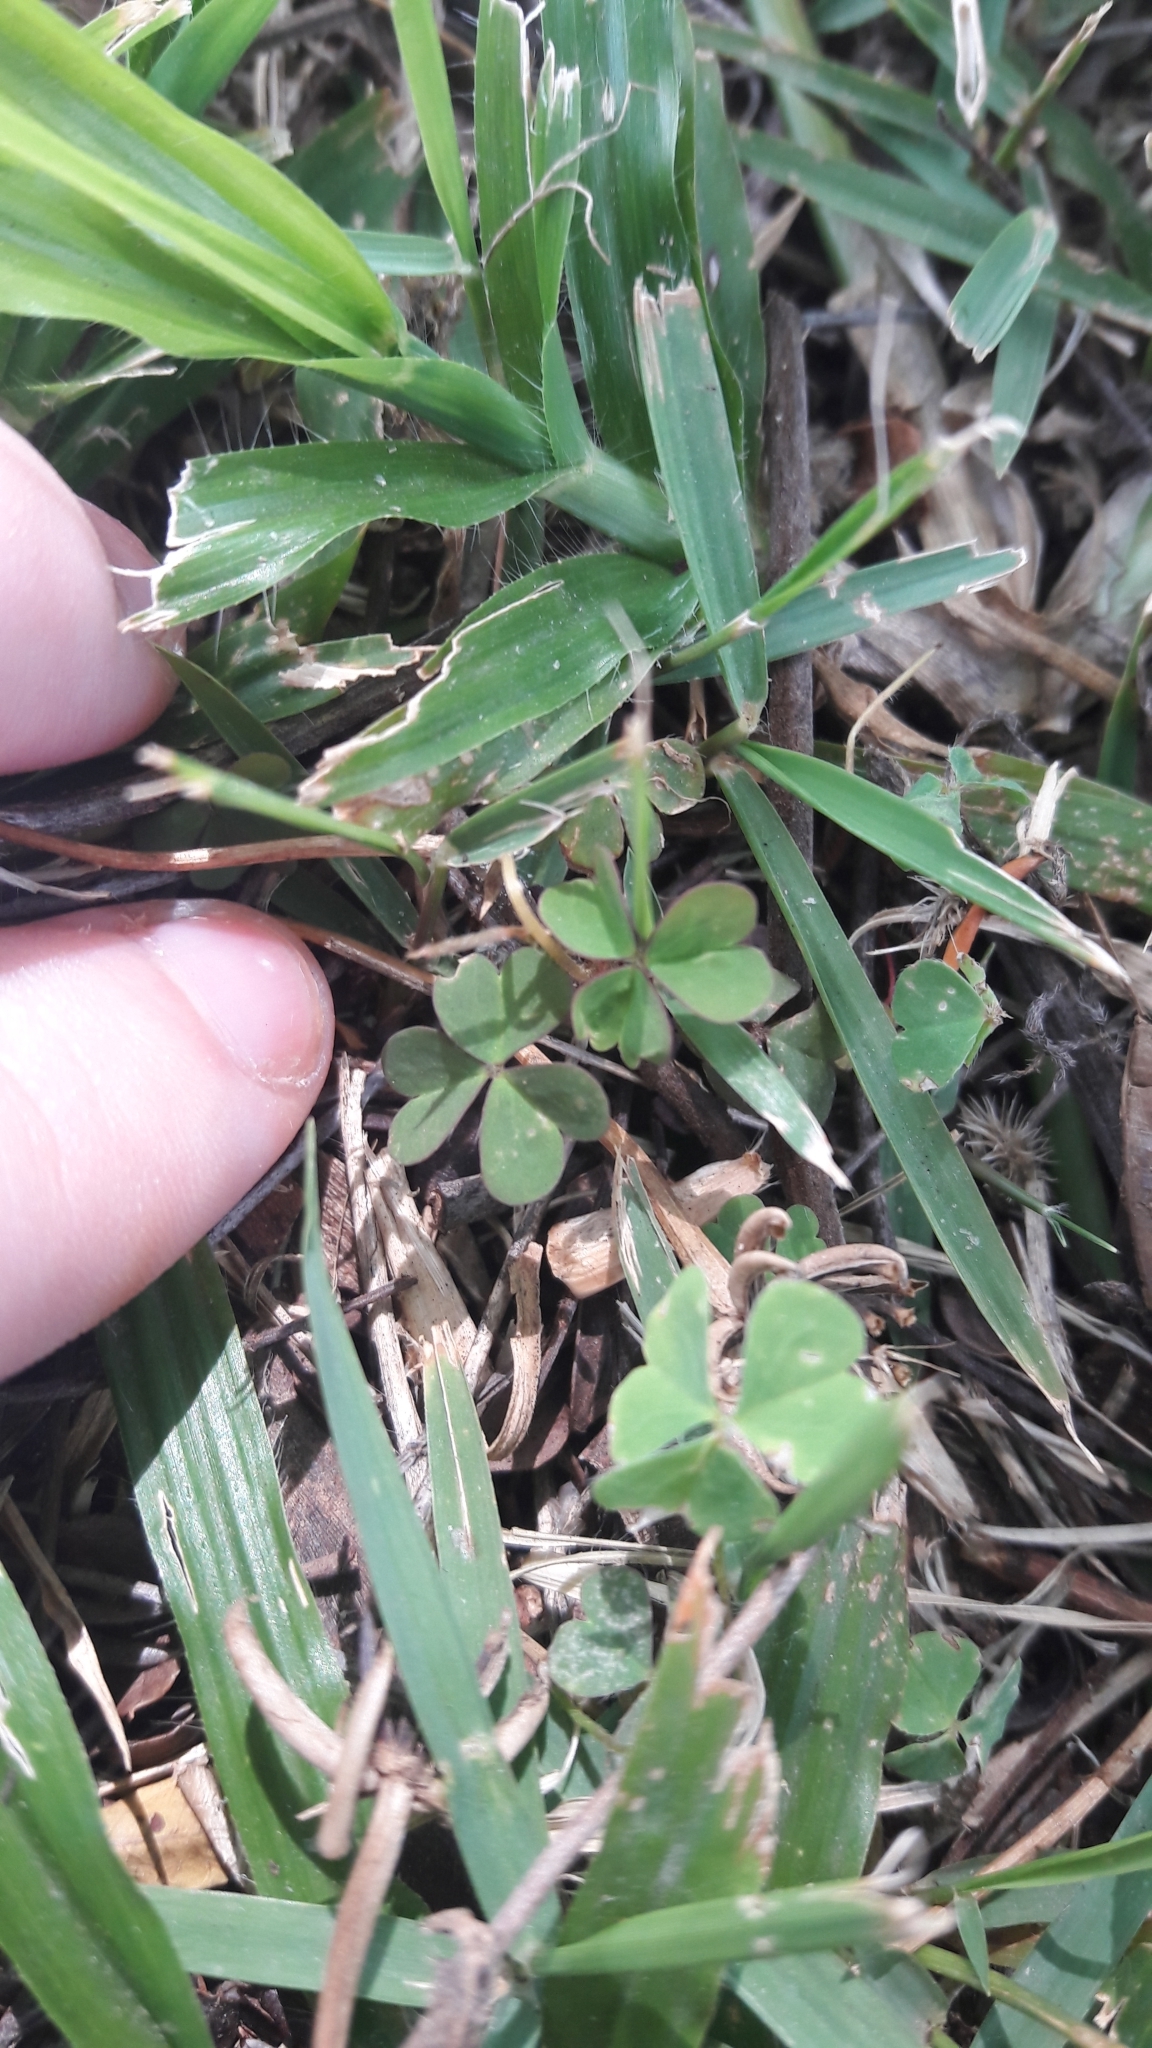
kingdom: Plantae
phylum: Tracheophyta
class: Magnoliopsida
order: Oxalidales
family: Oxalidaceae
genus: Oxalis
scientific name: Oxalis corniculata
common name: Procumbent yellow-sorrel
